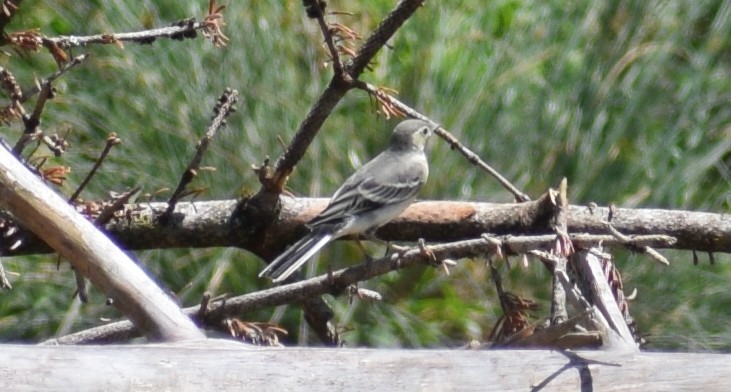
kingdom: Animalia
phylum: Chordata
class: Aves
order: Passeriformes
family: Motacillidae
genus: Motacilla
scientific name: Motacilla alba
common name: White wagtail
